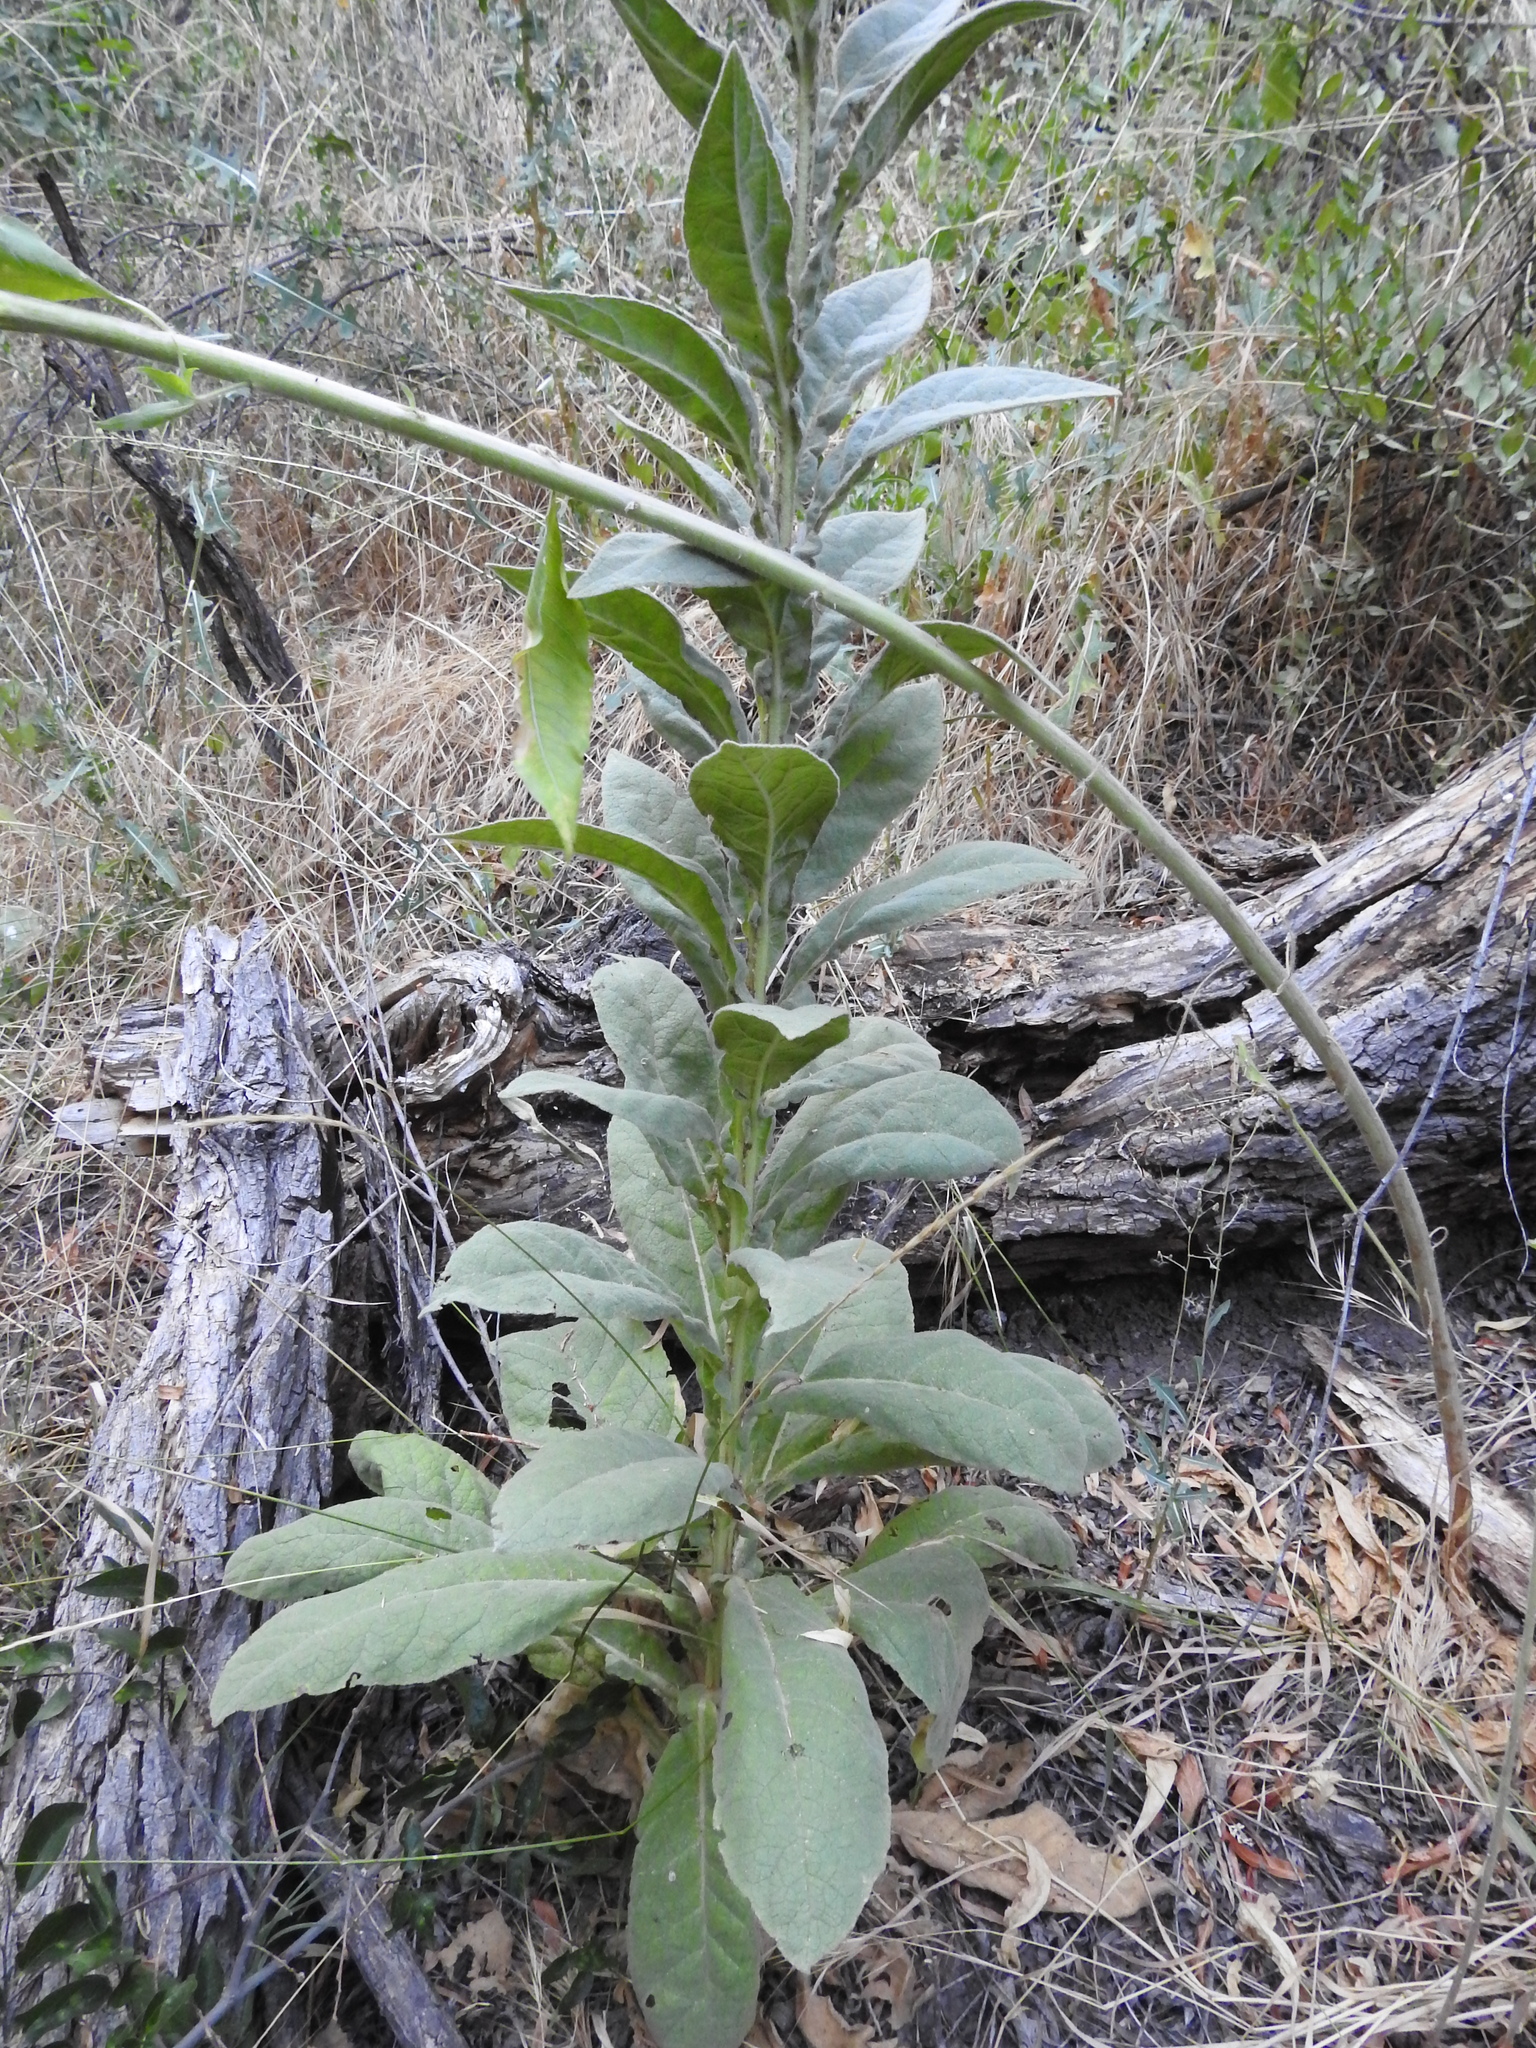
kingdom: Plantae
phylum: Tracheophyta
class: Magnoliopsida
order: Lamiales
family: Scrophulariaceae
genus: Verbascum
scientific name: Verbascum thapsus
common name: Common mullein
